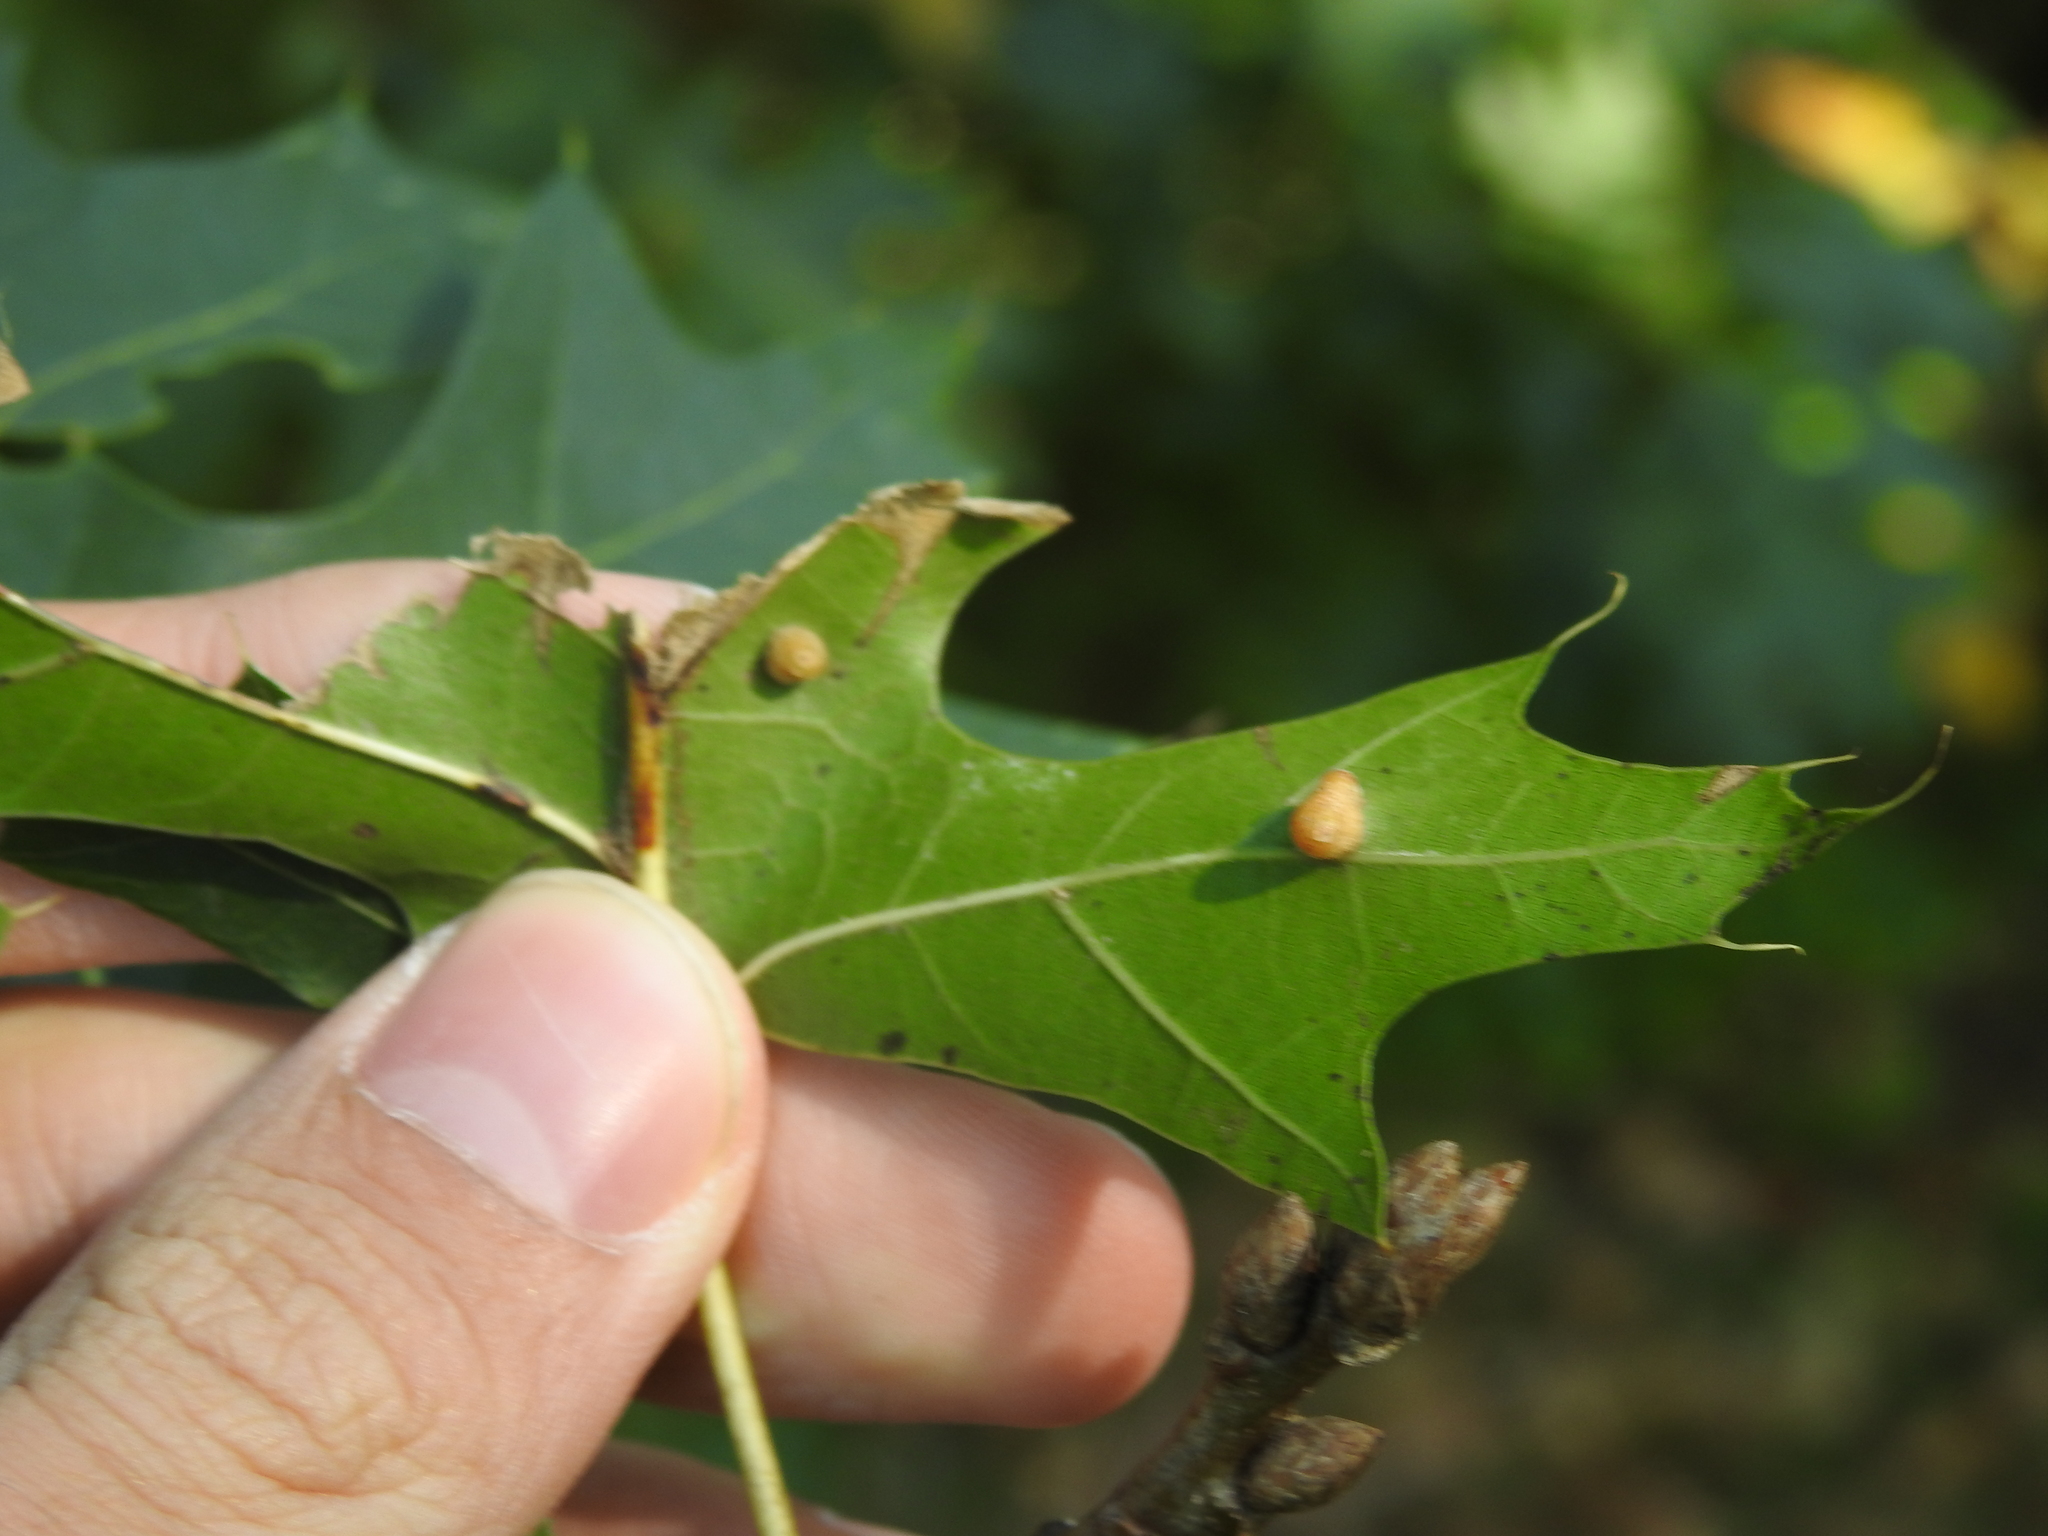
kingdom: Animalia
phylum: Arthropoda
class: Insecta
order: Diptera
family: Cecidomyiidae
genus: Polystepha
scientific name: Polystepha globosa
